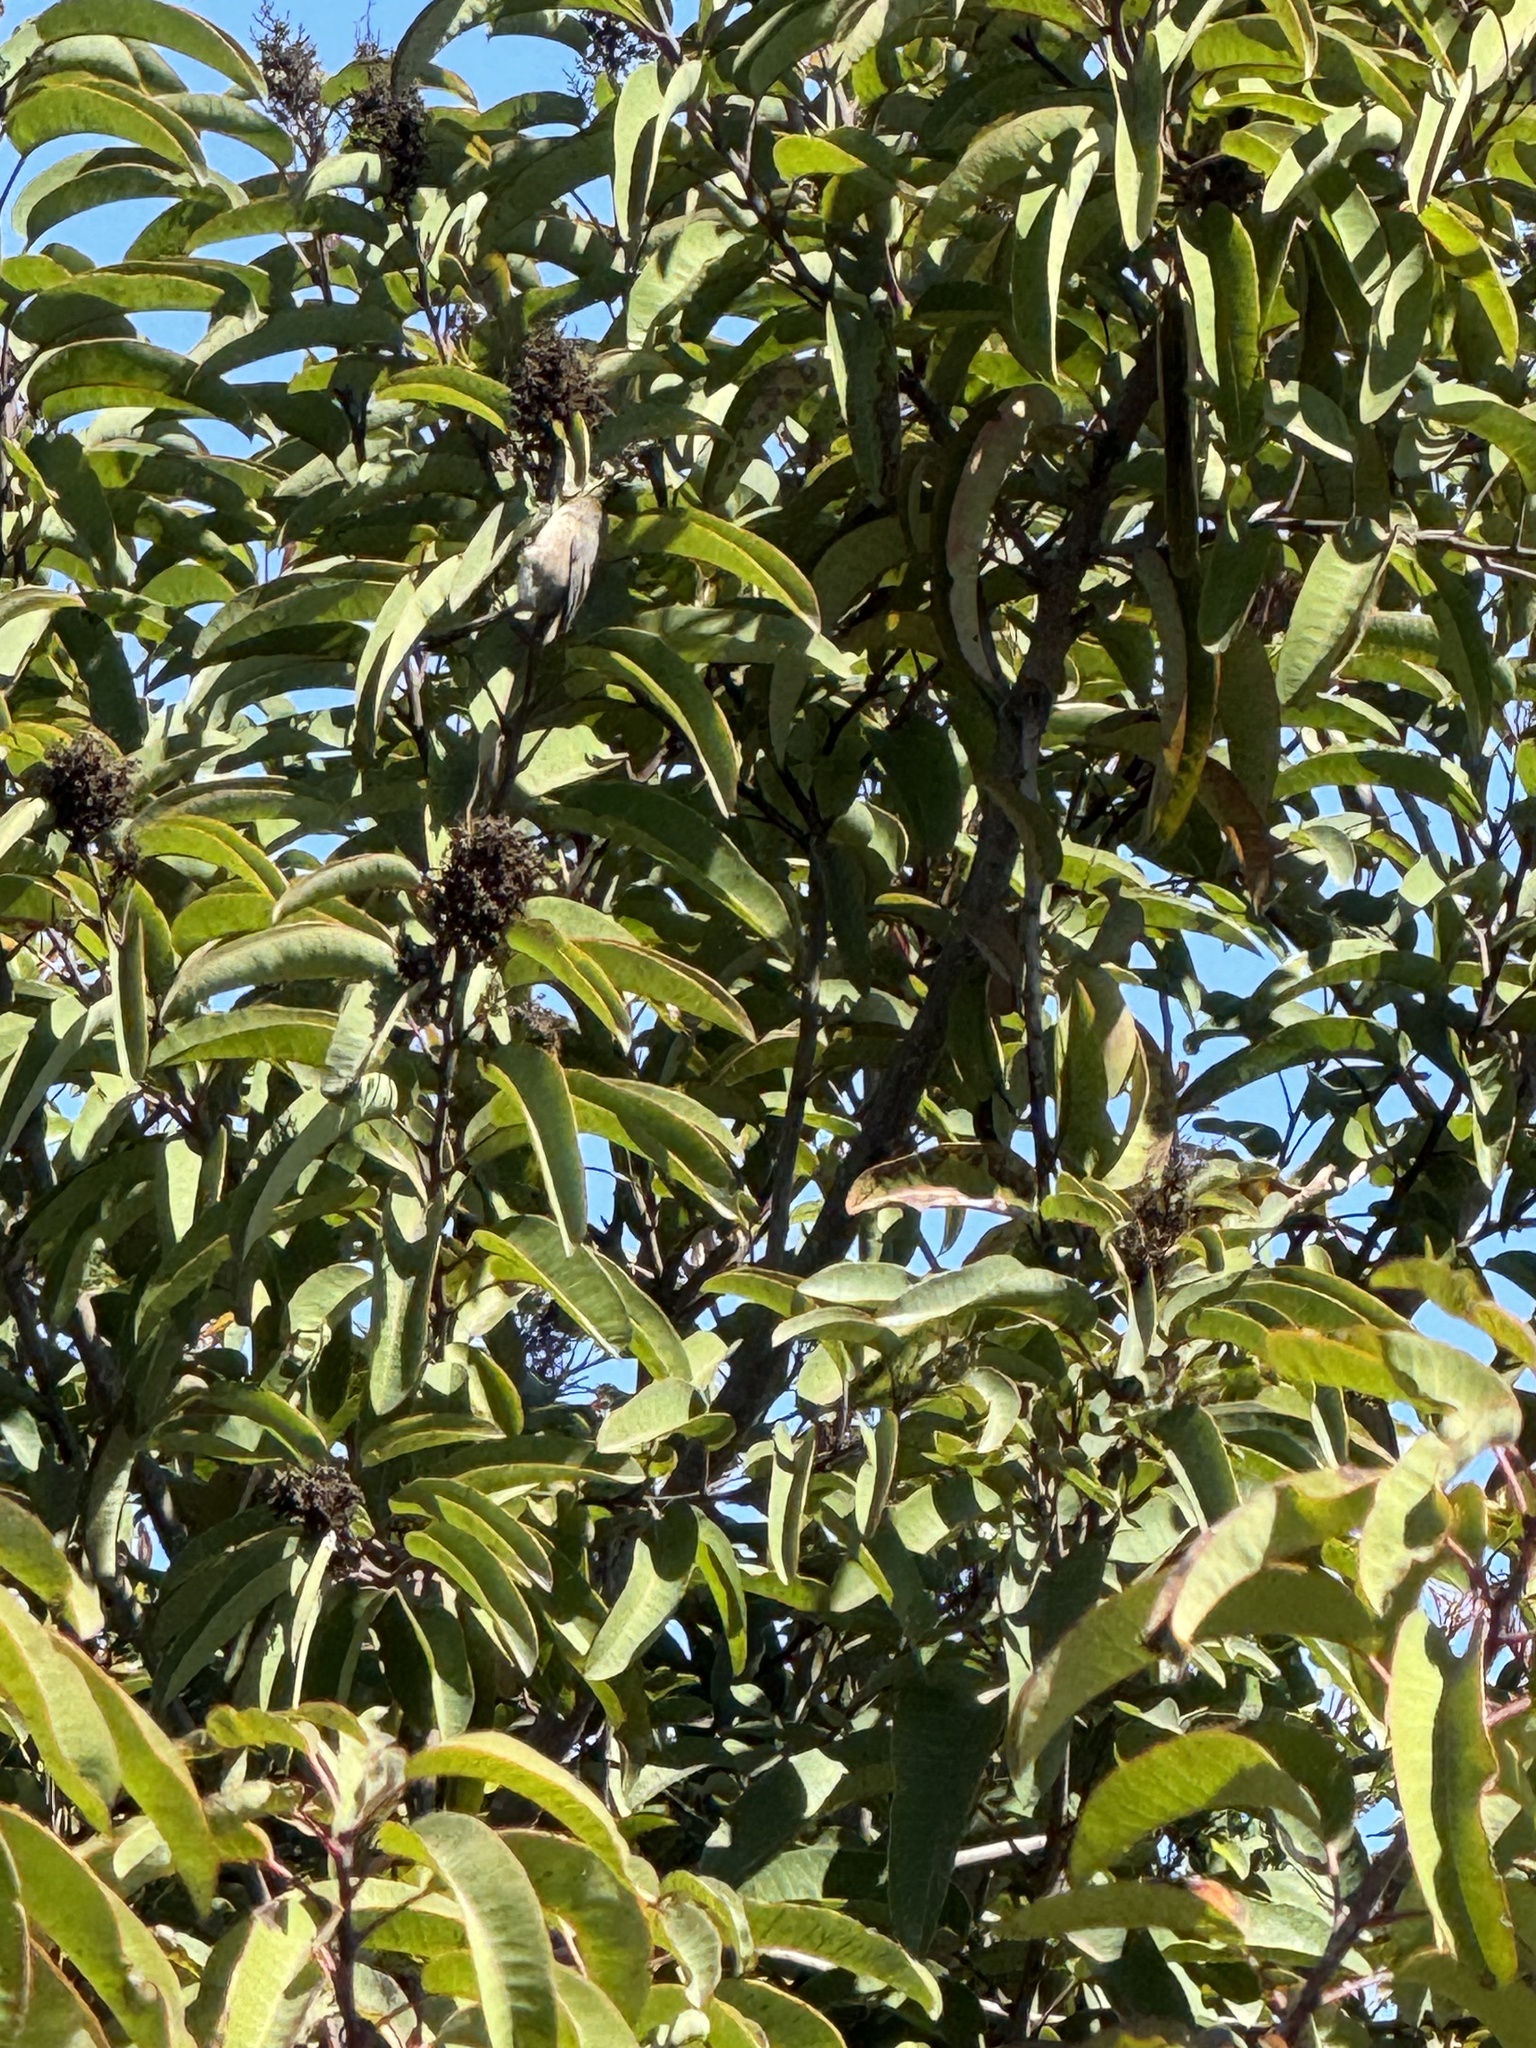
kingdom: Animalia
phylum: Chordata
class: Aves
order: Passeriformes
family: Aegithalidae
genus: Psaltriparus
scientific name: Psaltriparus minimus
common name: American bushtit
